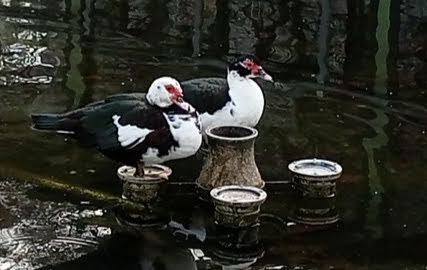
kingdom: Animalia
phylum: Chordata
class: Aves
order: Anseriformes
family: Anatidae
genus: Cairina
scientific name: Cairina moschata
